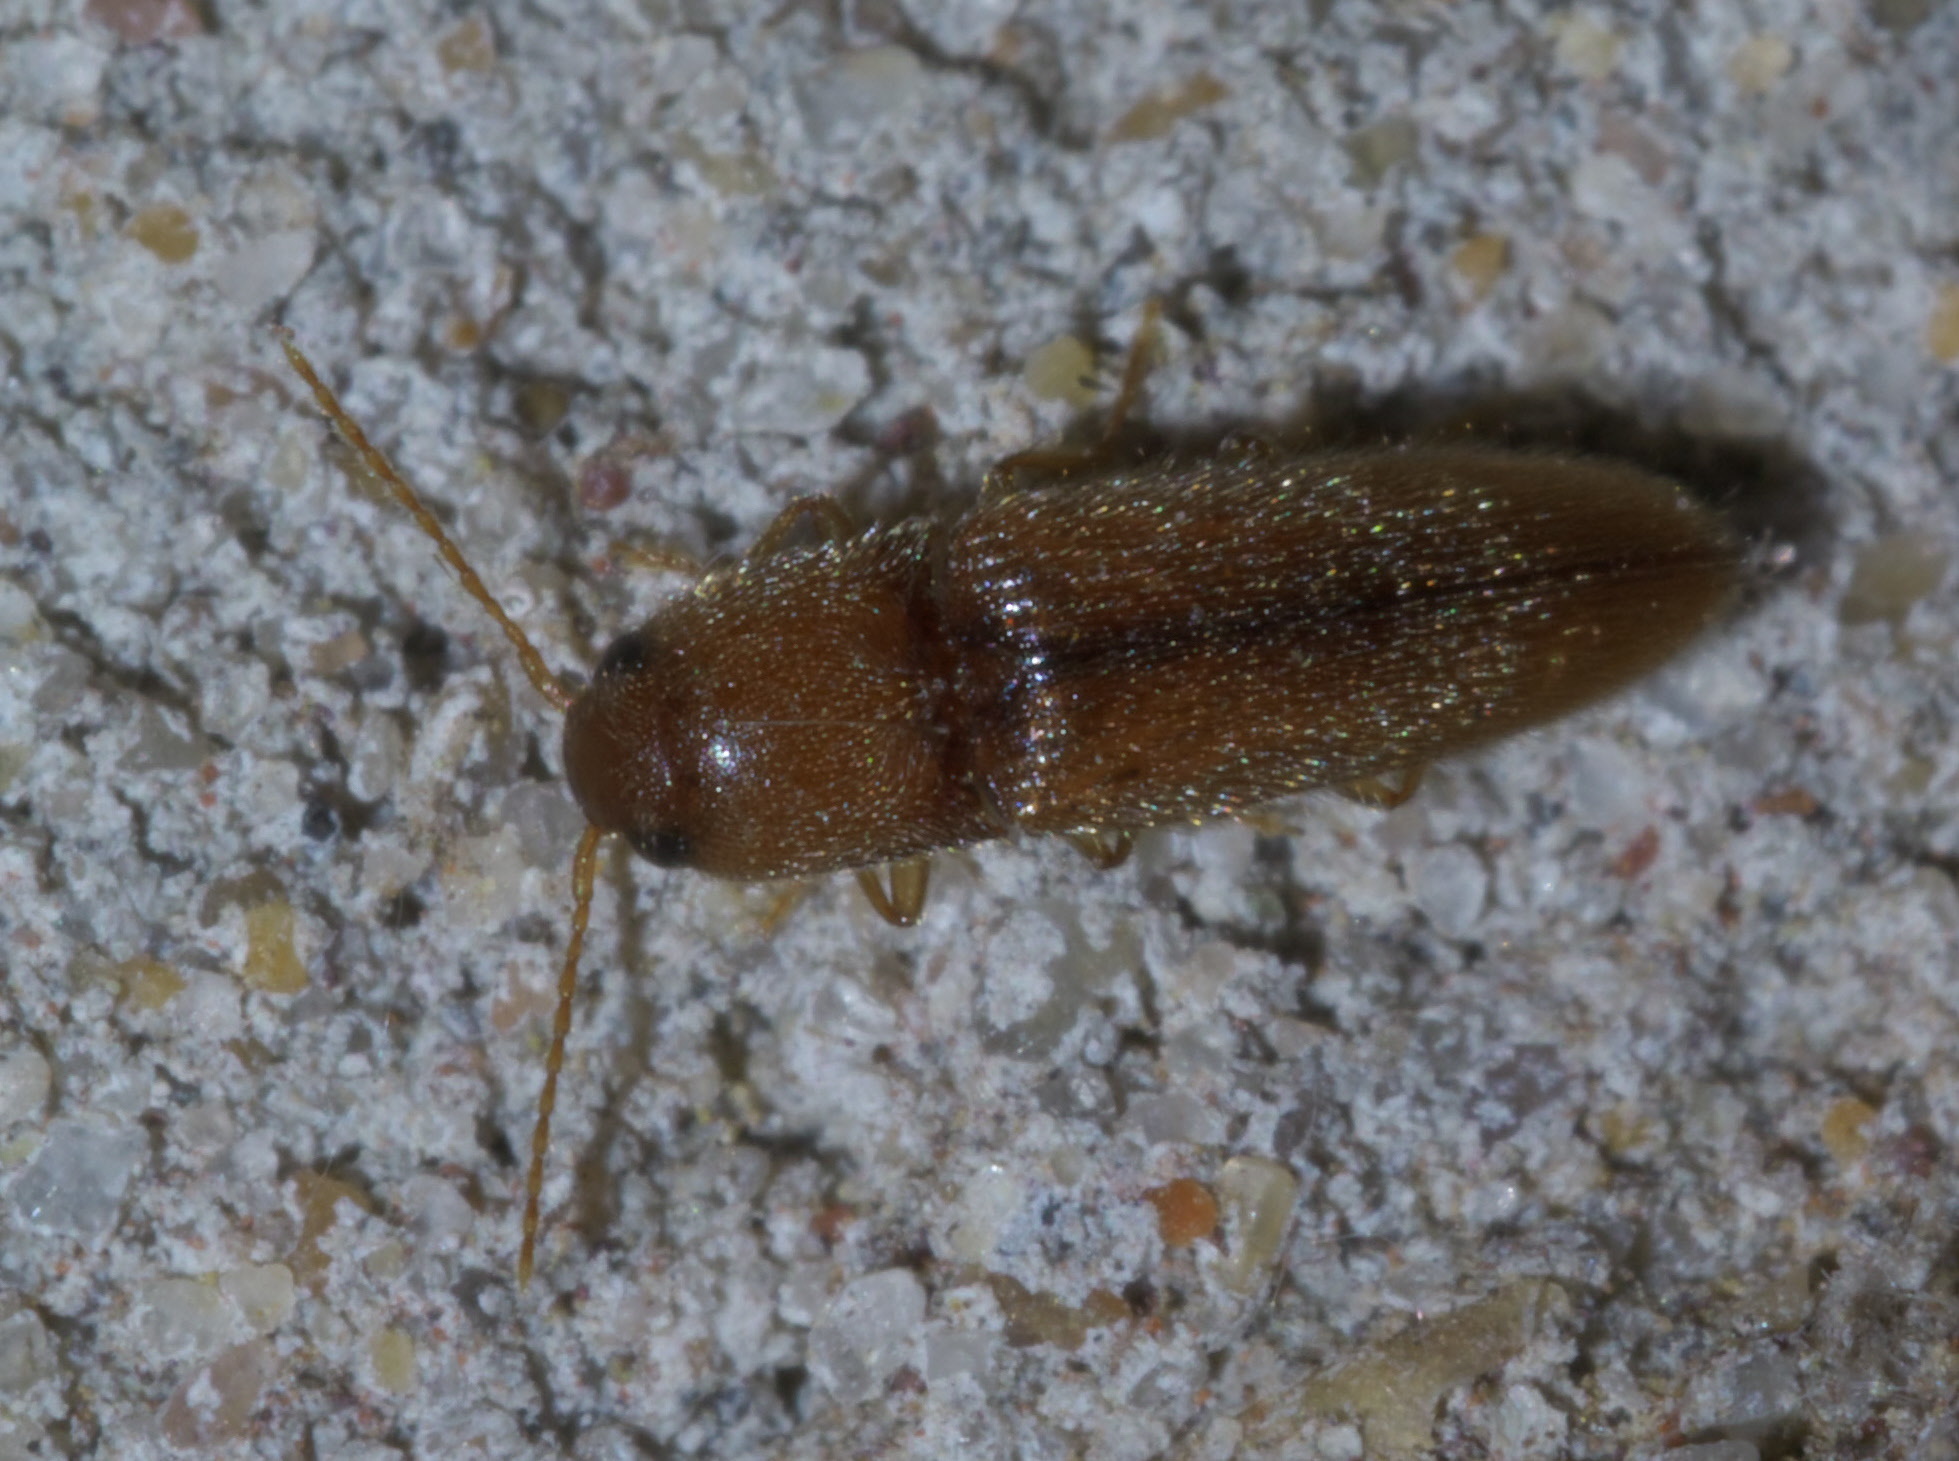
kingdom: Animalia
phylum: Arthropoda
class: Insecta
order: Coleoptera
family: Elateridae
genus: Glyphonyx
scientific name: Glyphonyx
